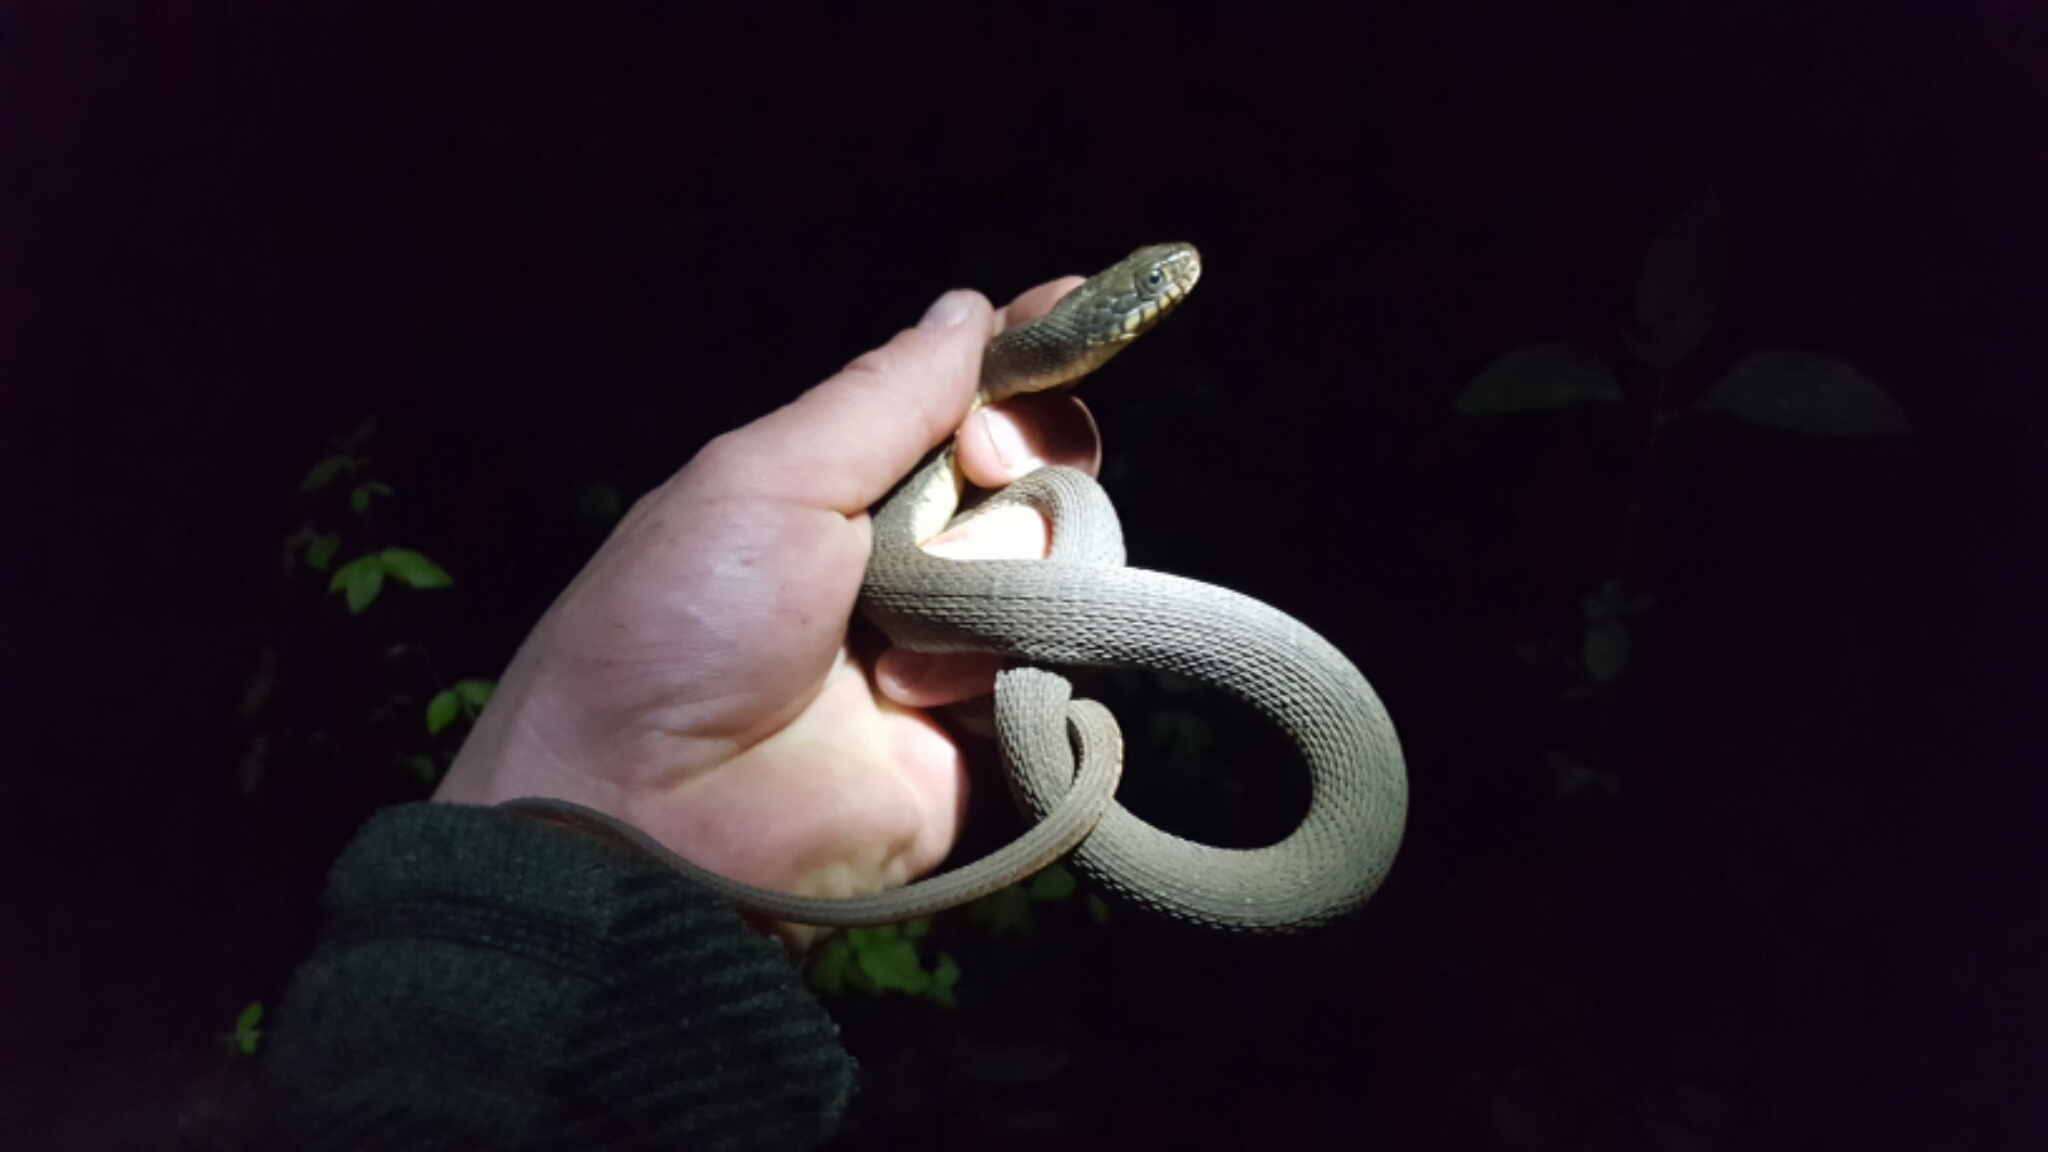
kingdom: Animalia
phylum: Chordata
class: Squamata
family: Colubridae
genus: Nerodia
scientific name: Nerodia erythrogaster
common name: Plainbelly water snake
